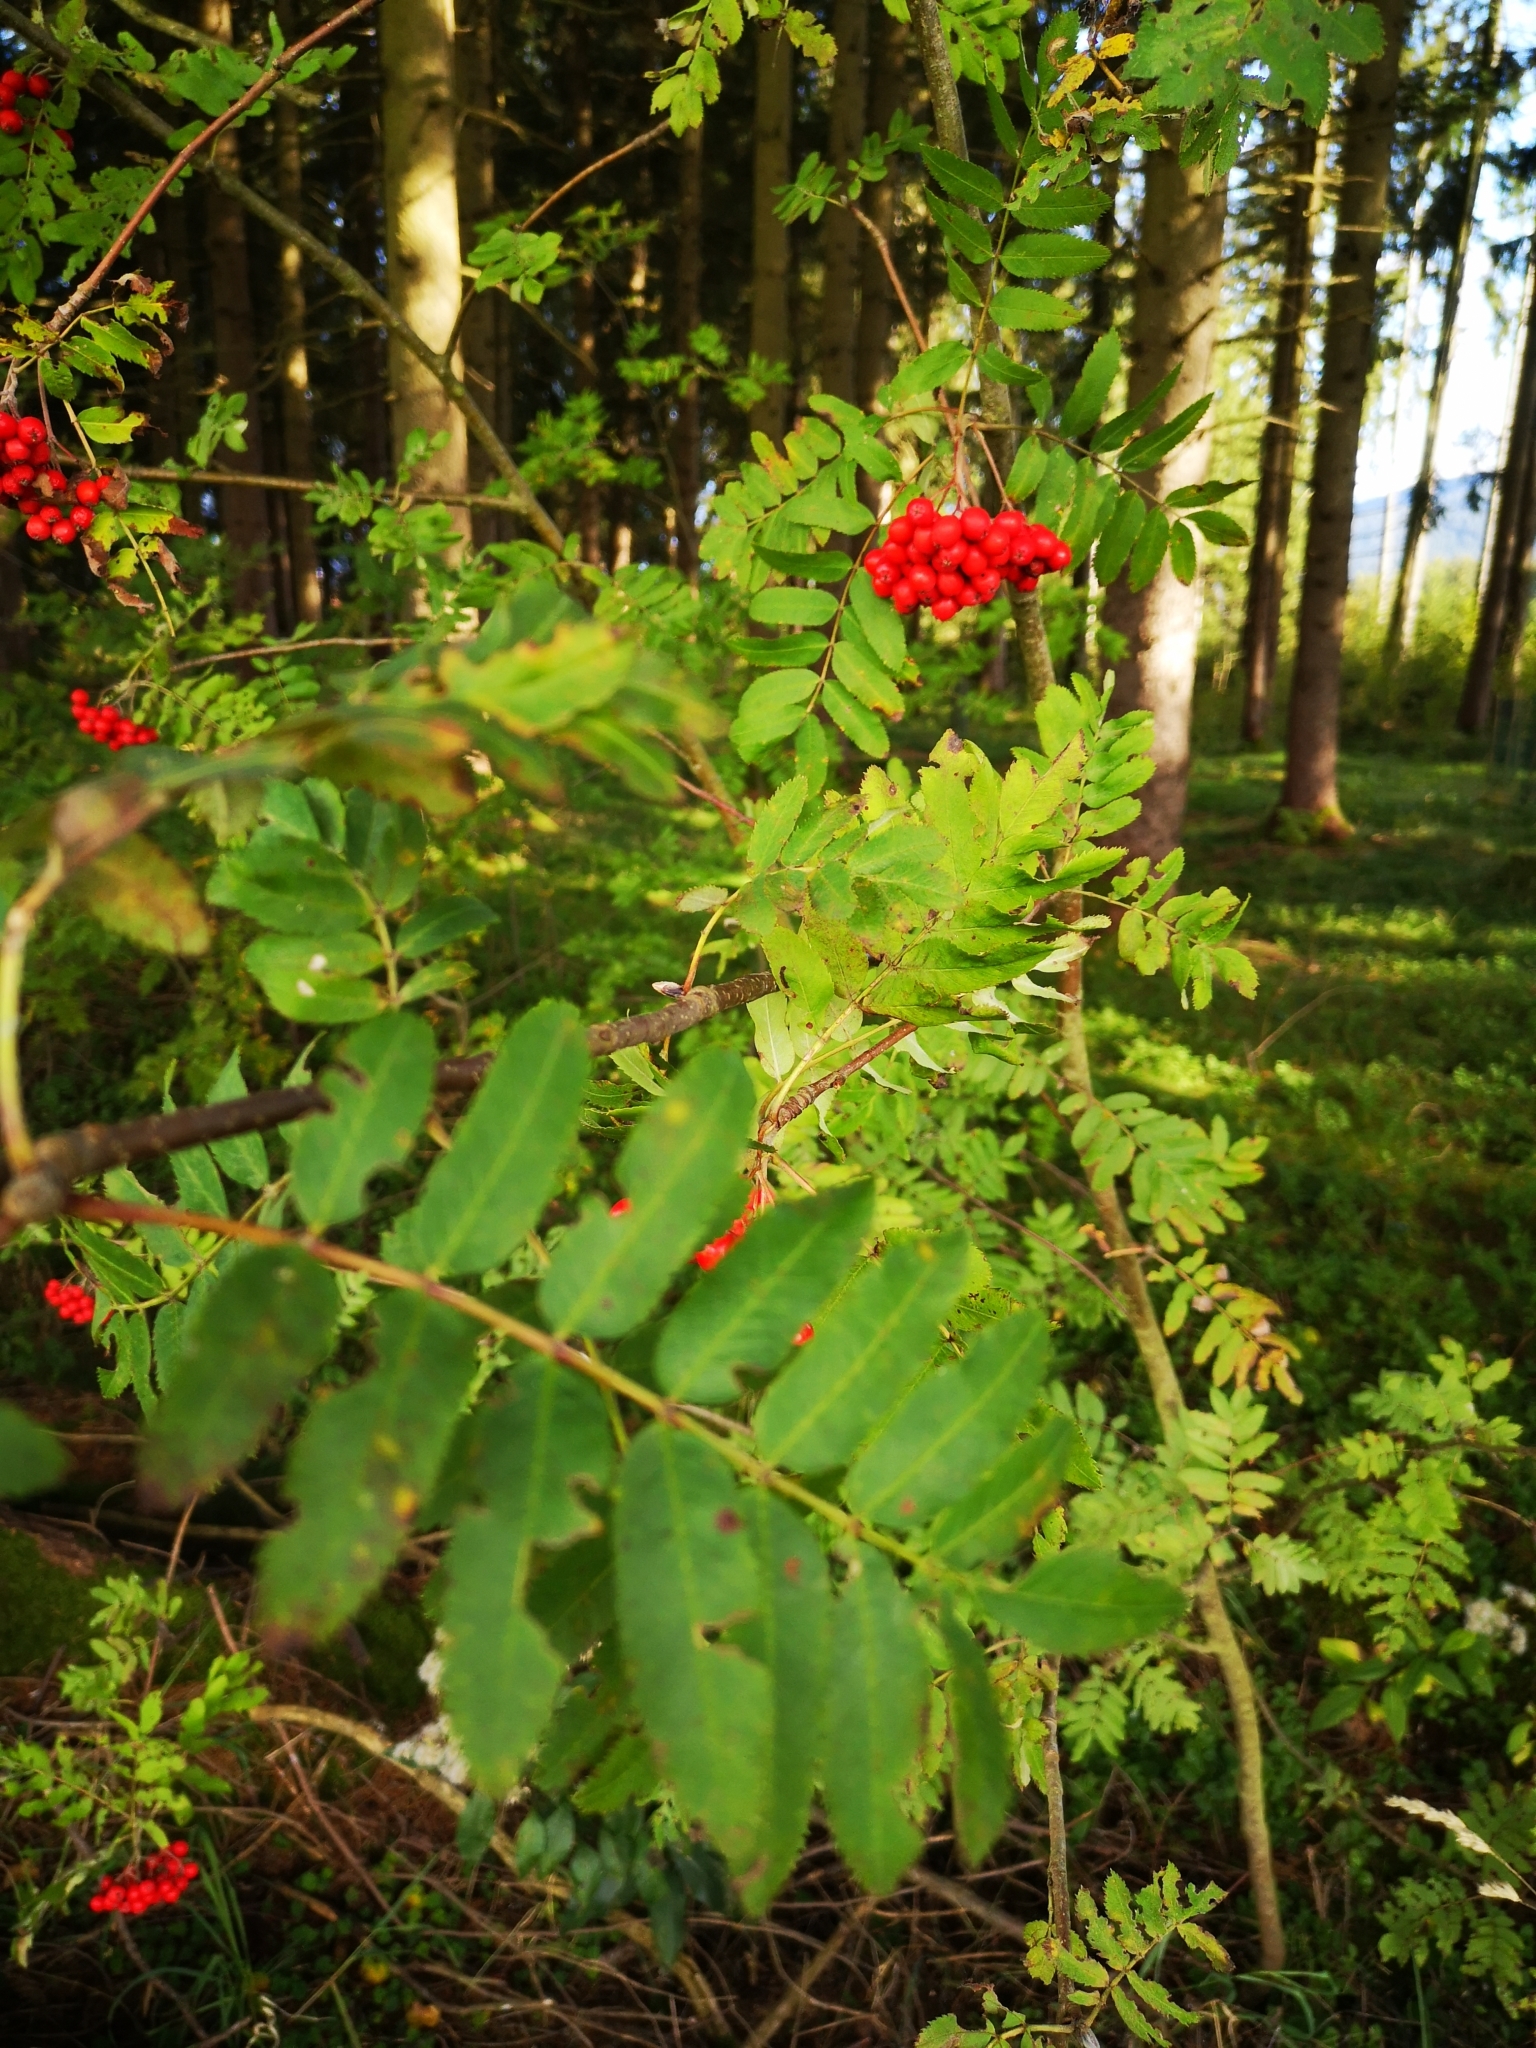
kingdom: Plantae
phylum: Tracheophyta
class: Magnoliopsida
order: Rosales
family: Rosaceae
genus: Sorbus
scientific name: Sorbus aucuparia
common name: Rowan
